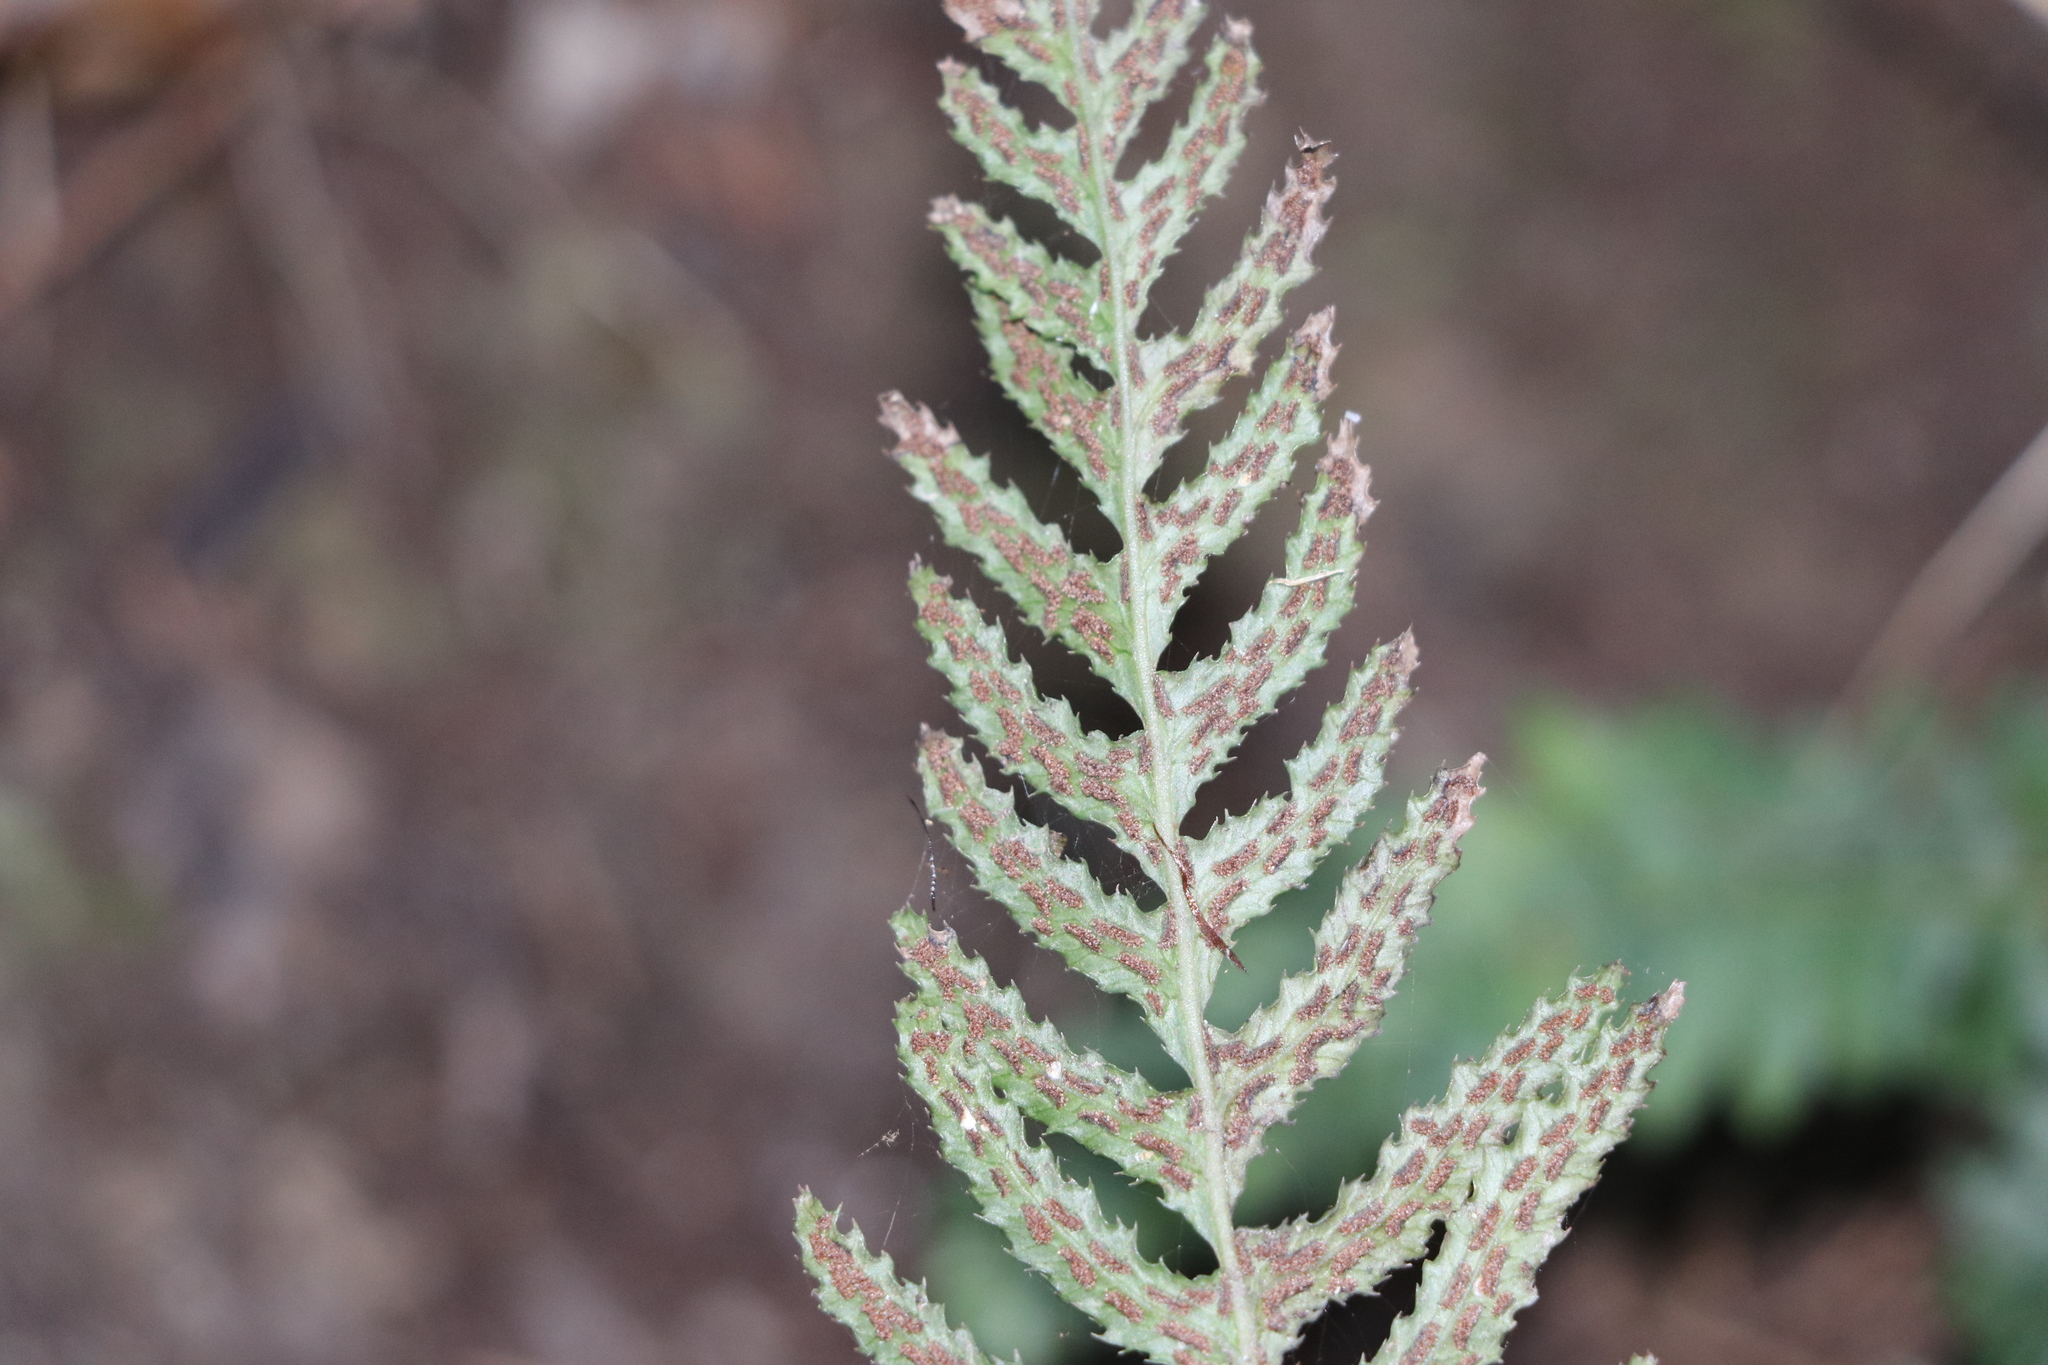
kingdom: Plantae
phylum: Tracheophyta
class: Polypodiopsida
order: Polypodiales
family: Blechnaceae
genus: Doodia
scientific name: Doodia australis
